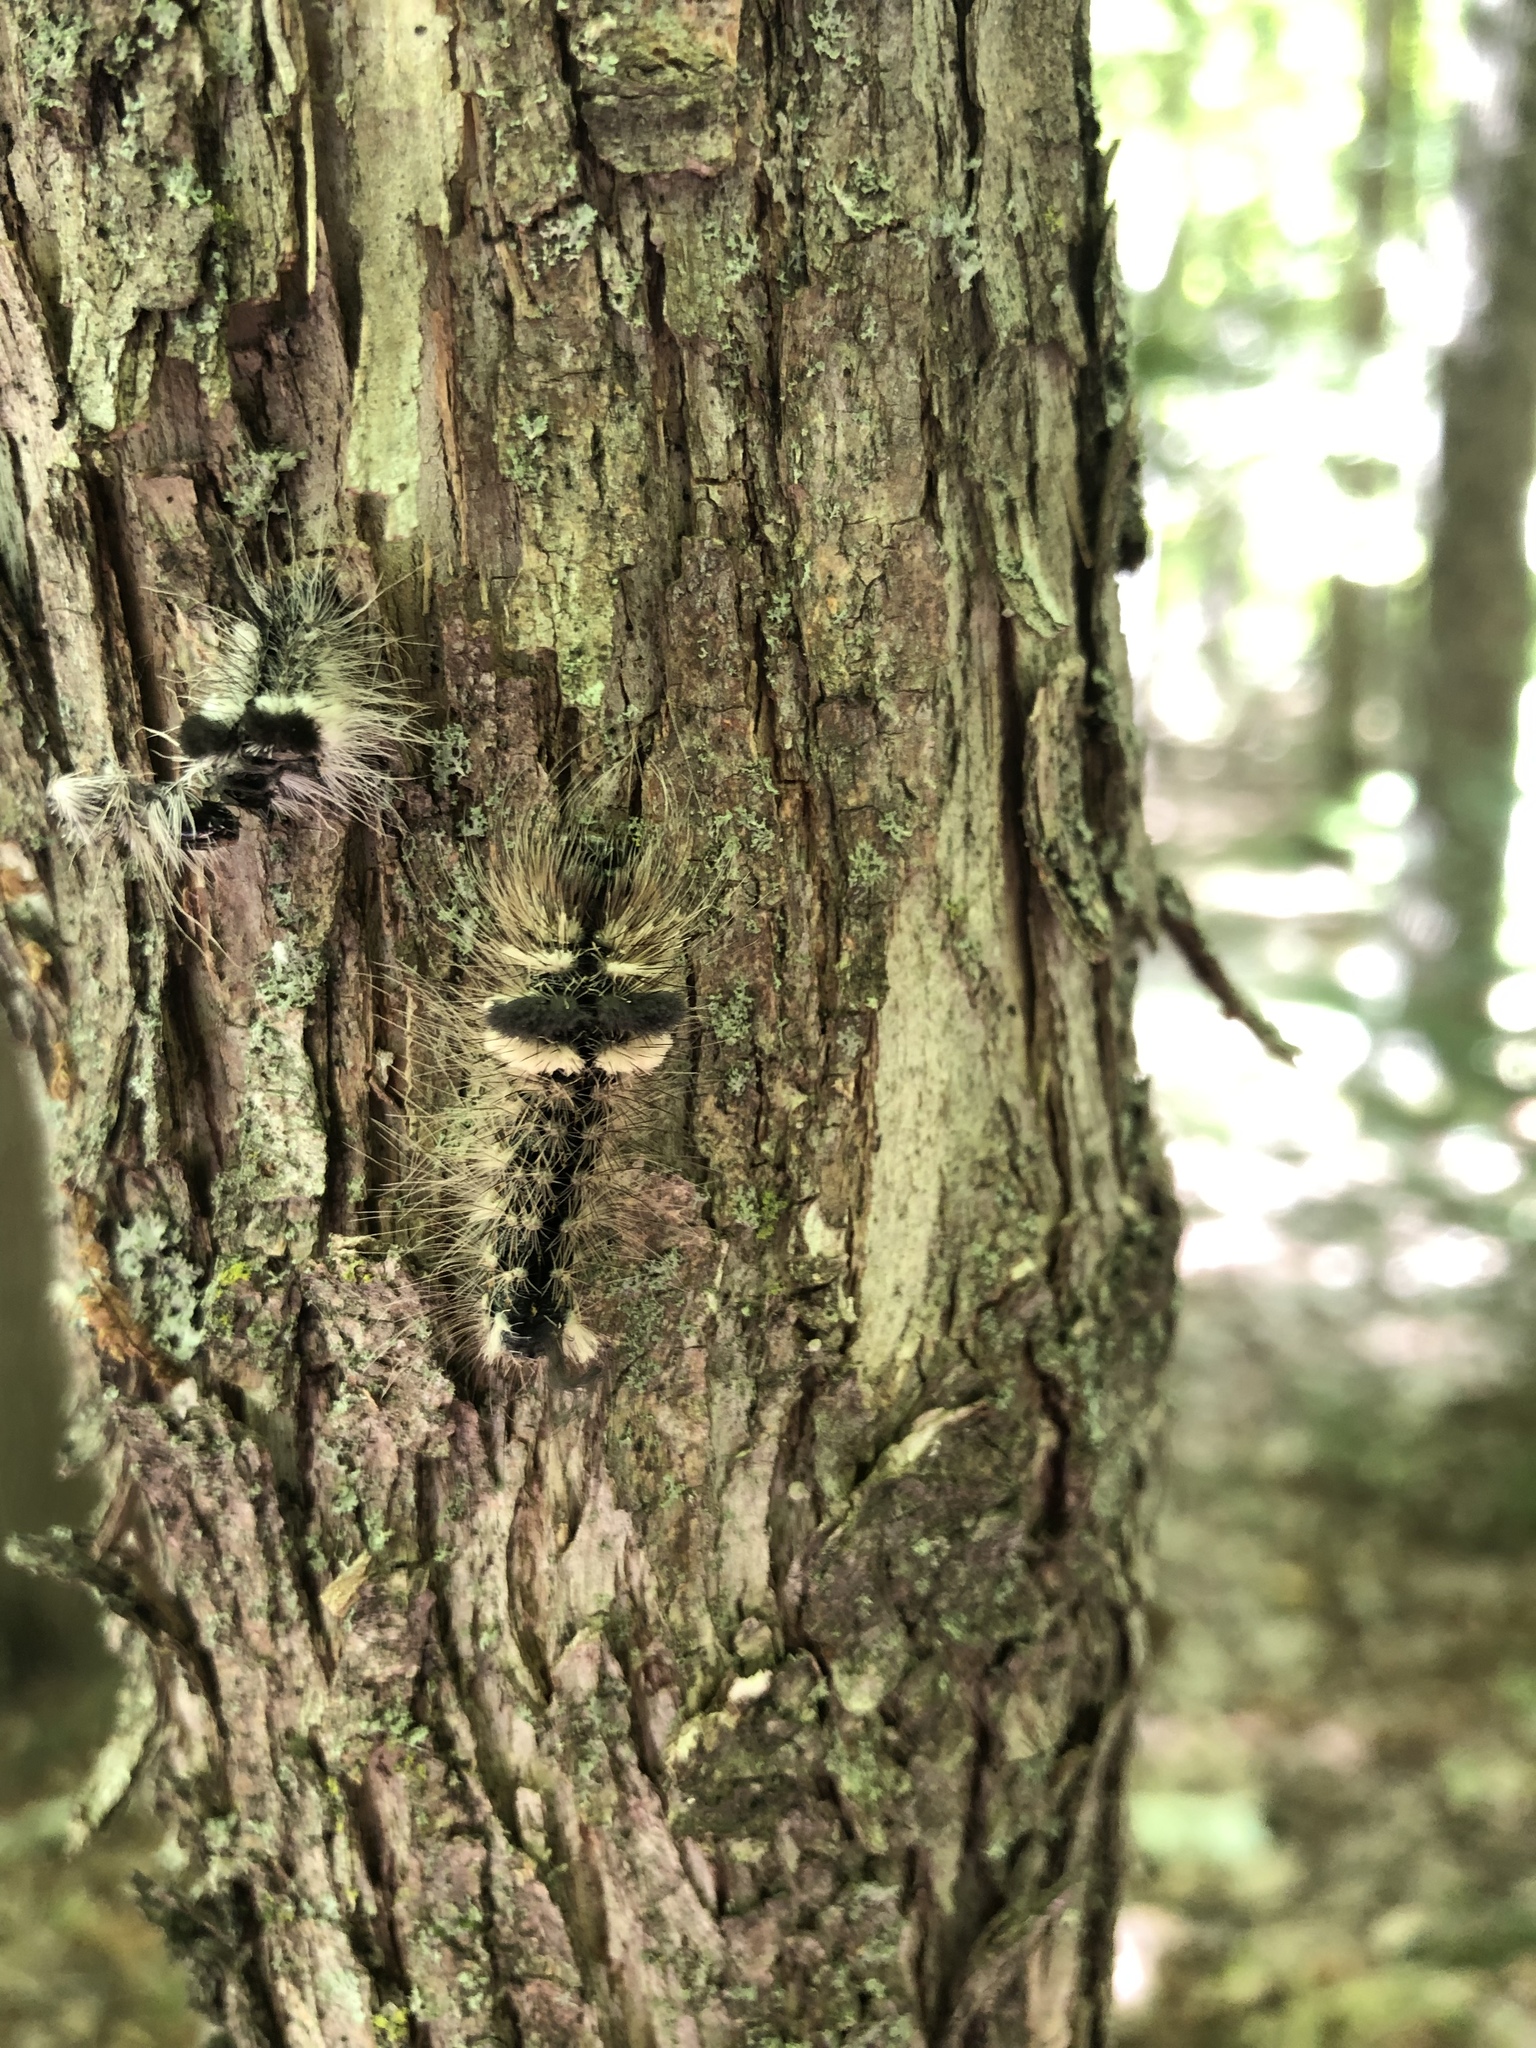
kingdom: Animalia
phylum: Arthropoda
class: Insecta
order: Lepidoptera
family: Noctuidae
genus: Acronicta
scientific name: Acronicta impleta
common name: Powdered dagger
